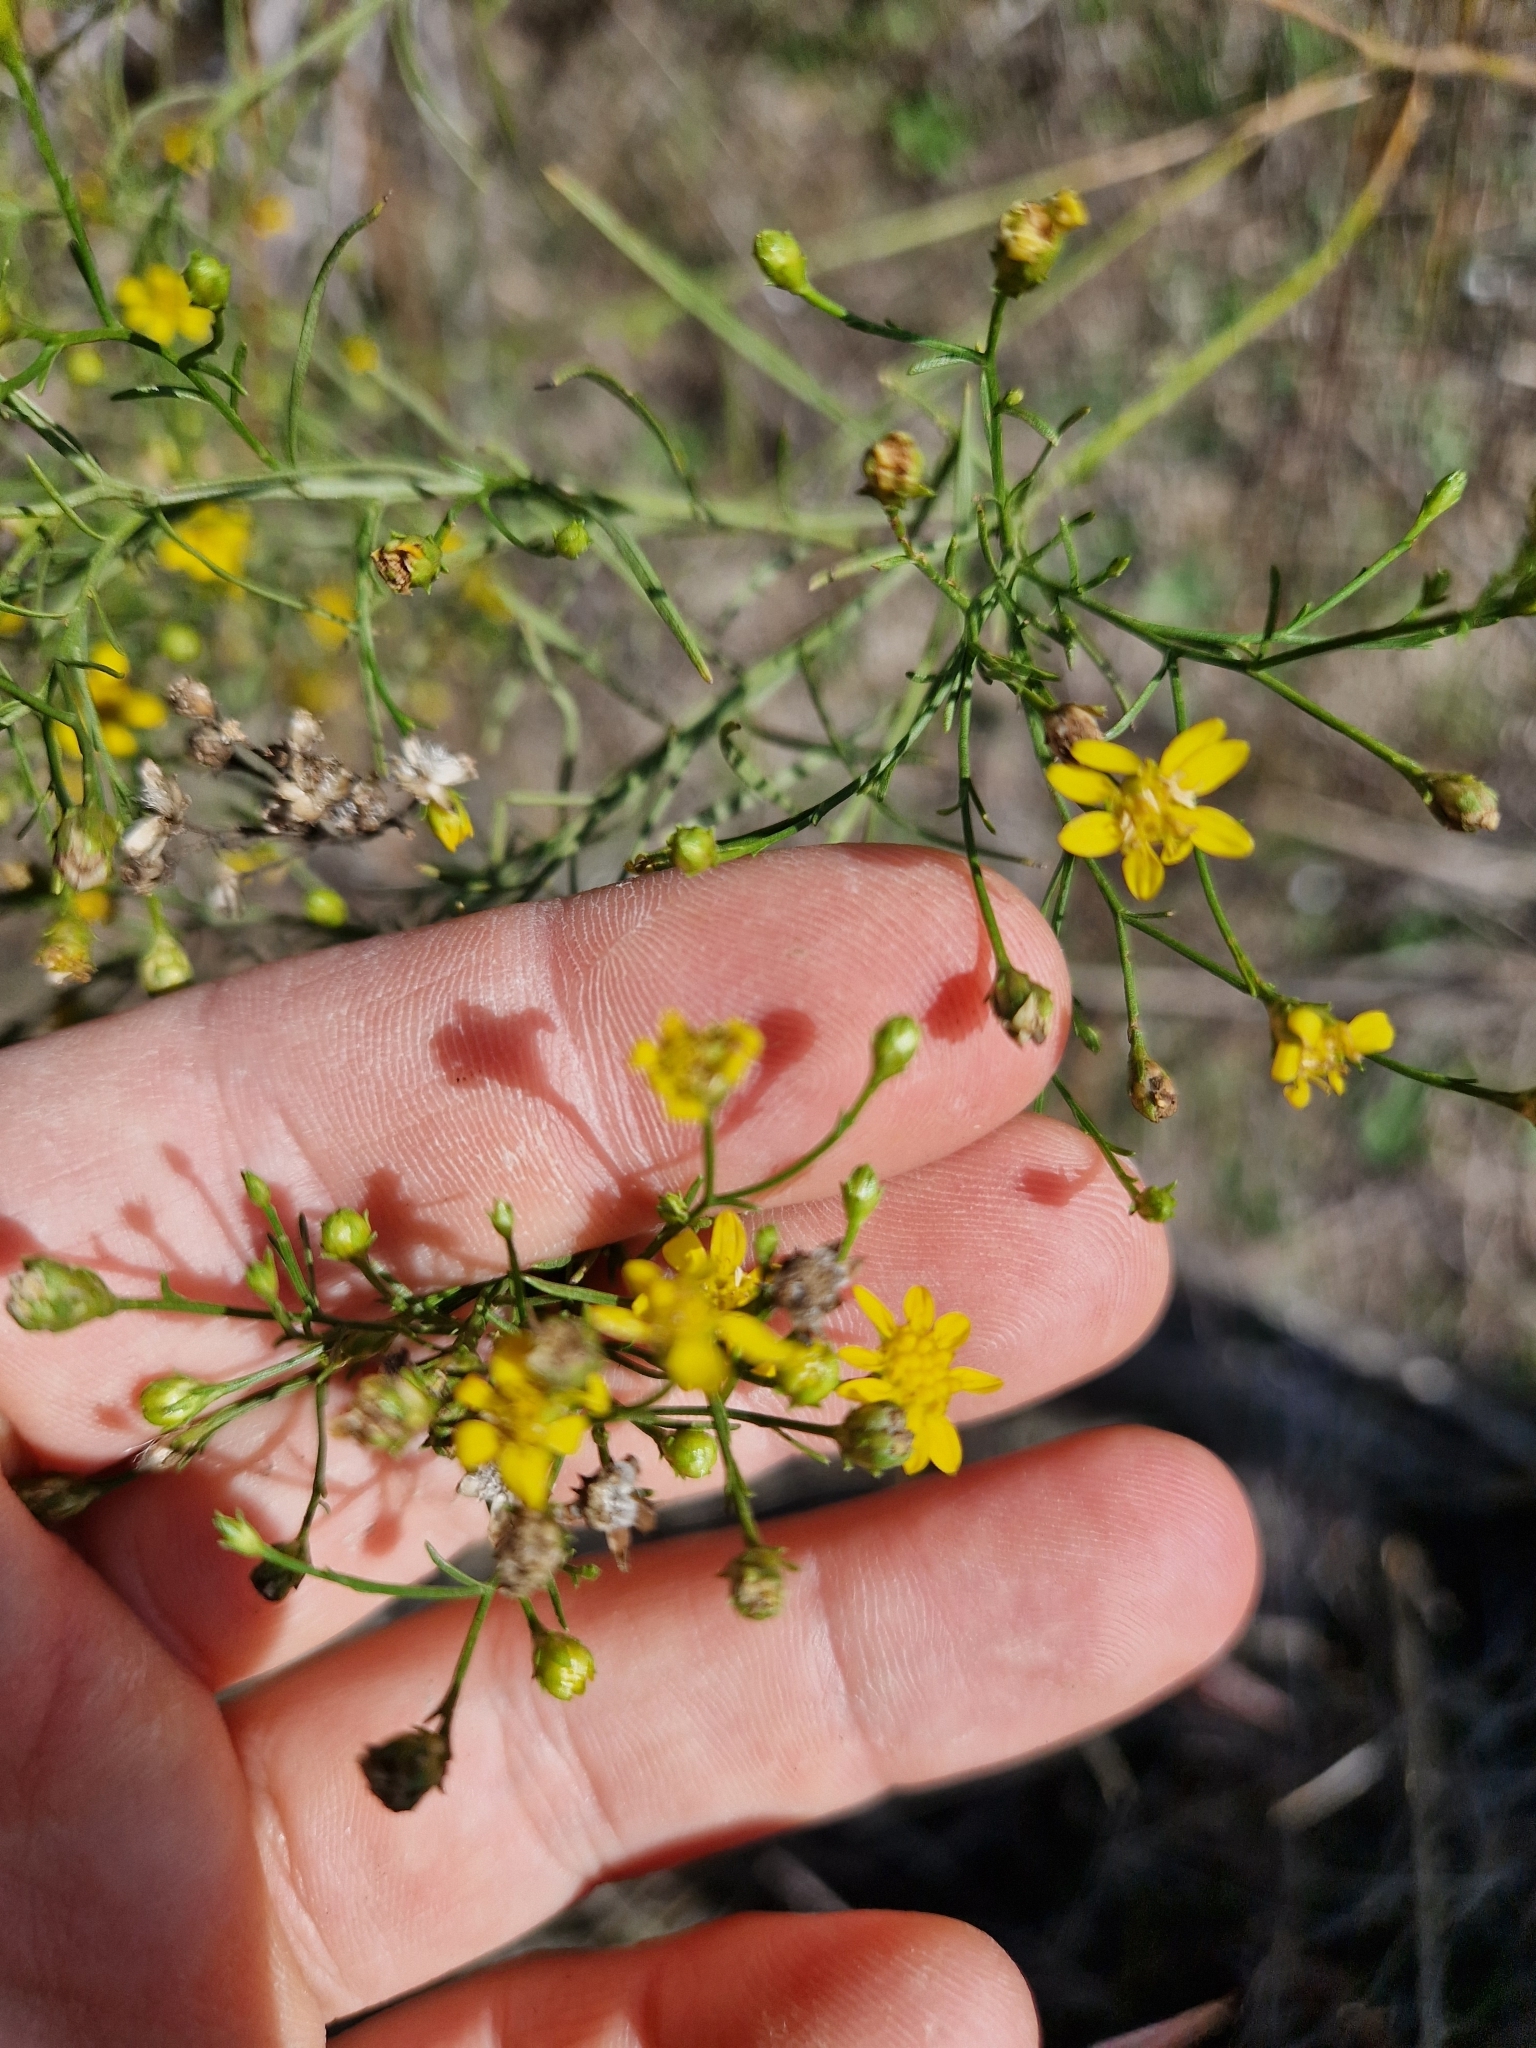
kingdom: Plantae
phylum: Tracheophyta
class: Magnoliopsida
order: Asterales
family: Asteraceae
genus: Amphiachyris
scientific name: Amphiachyris dracunculoides
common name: Broomweed
